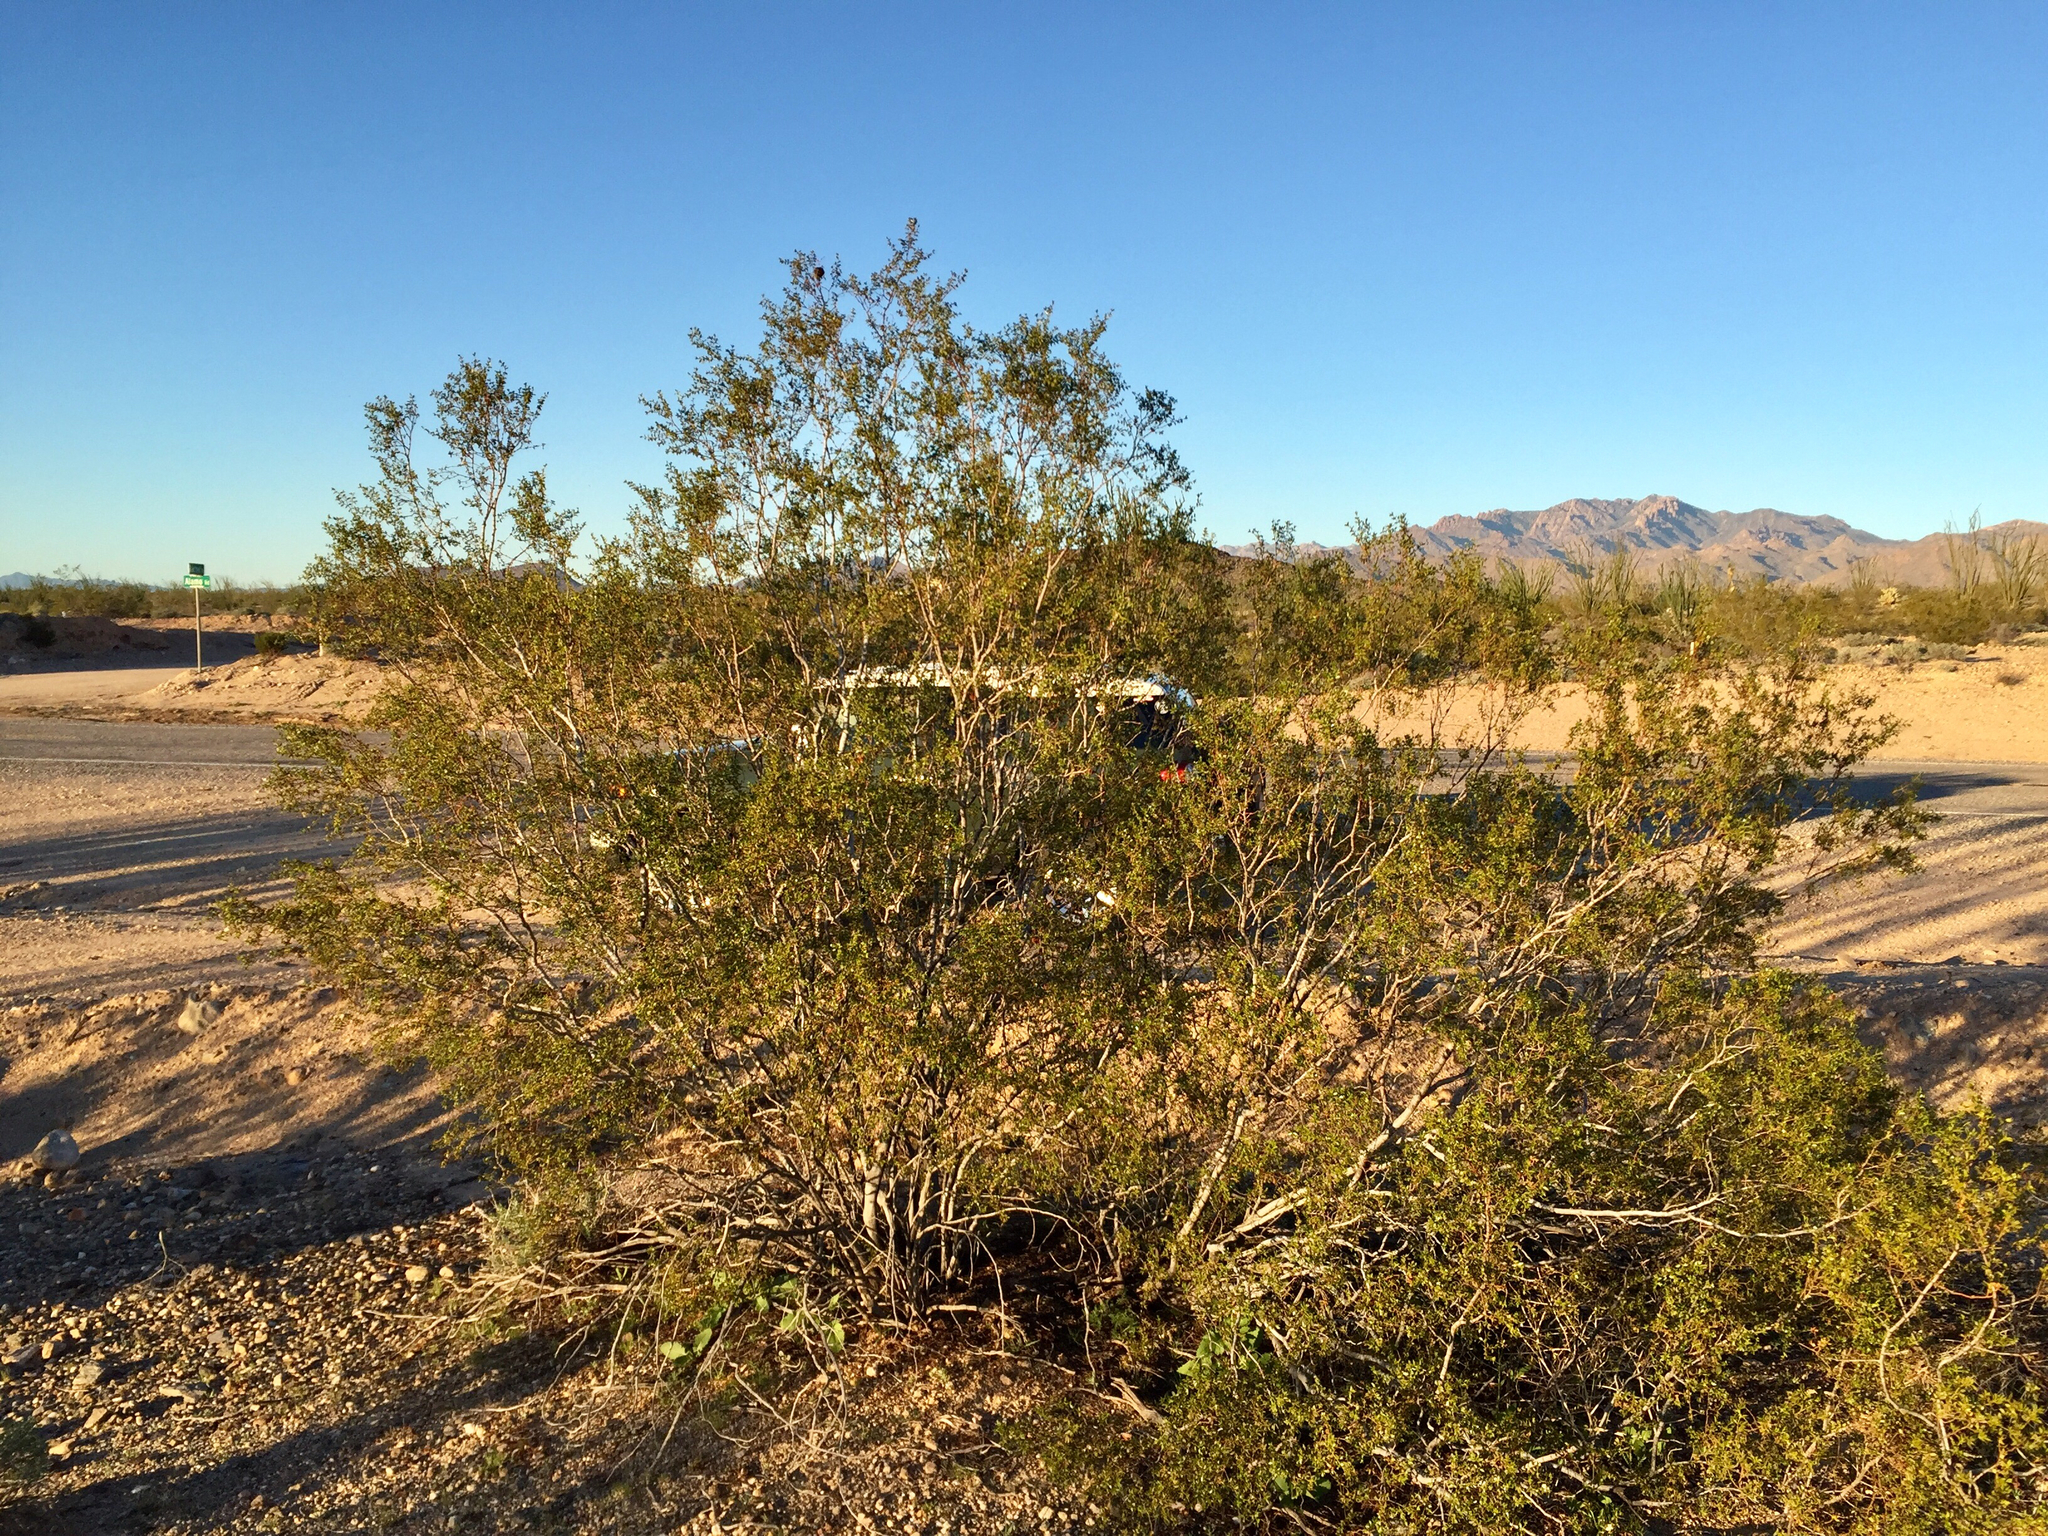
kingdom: Plantae
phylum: Tracheophyta
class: Magnoliopsida
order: Zygophyllales
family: Zygophyllaceae
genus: Larrea
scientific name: Larrea tridentata
